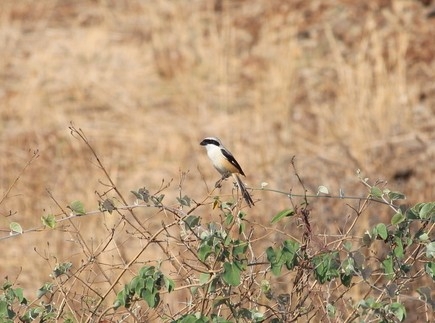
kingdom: Animalia
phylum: Chordata
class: Aves
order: Passeriformes
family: Laniidae
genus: Lanius
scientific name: Lanius schach
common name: Long-tailed shrike
